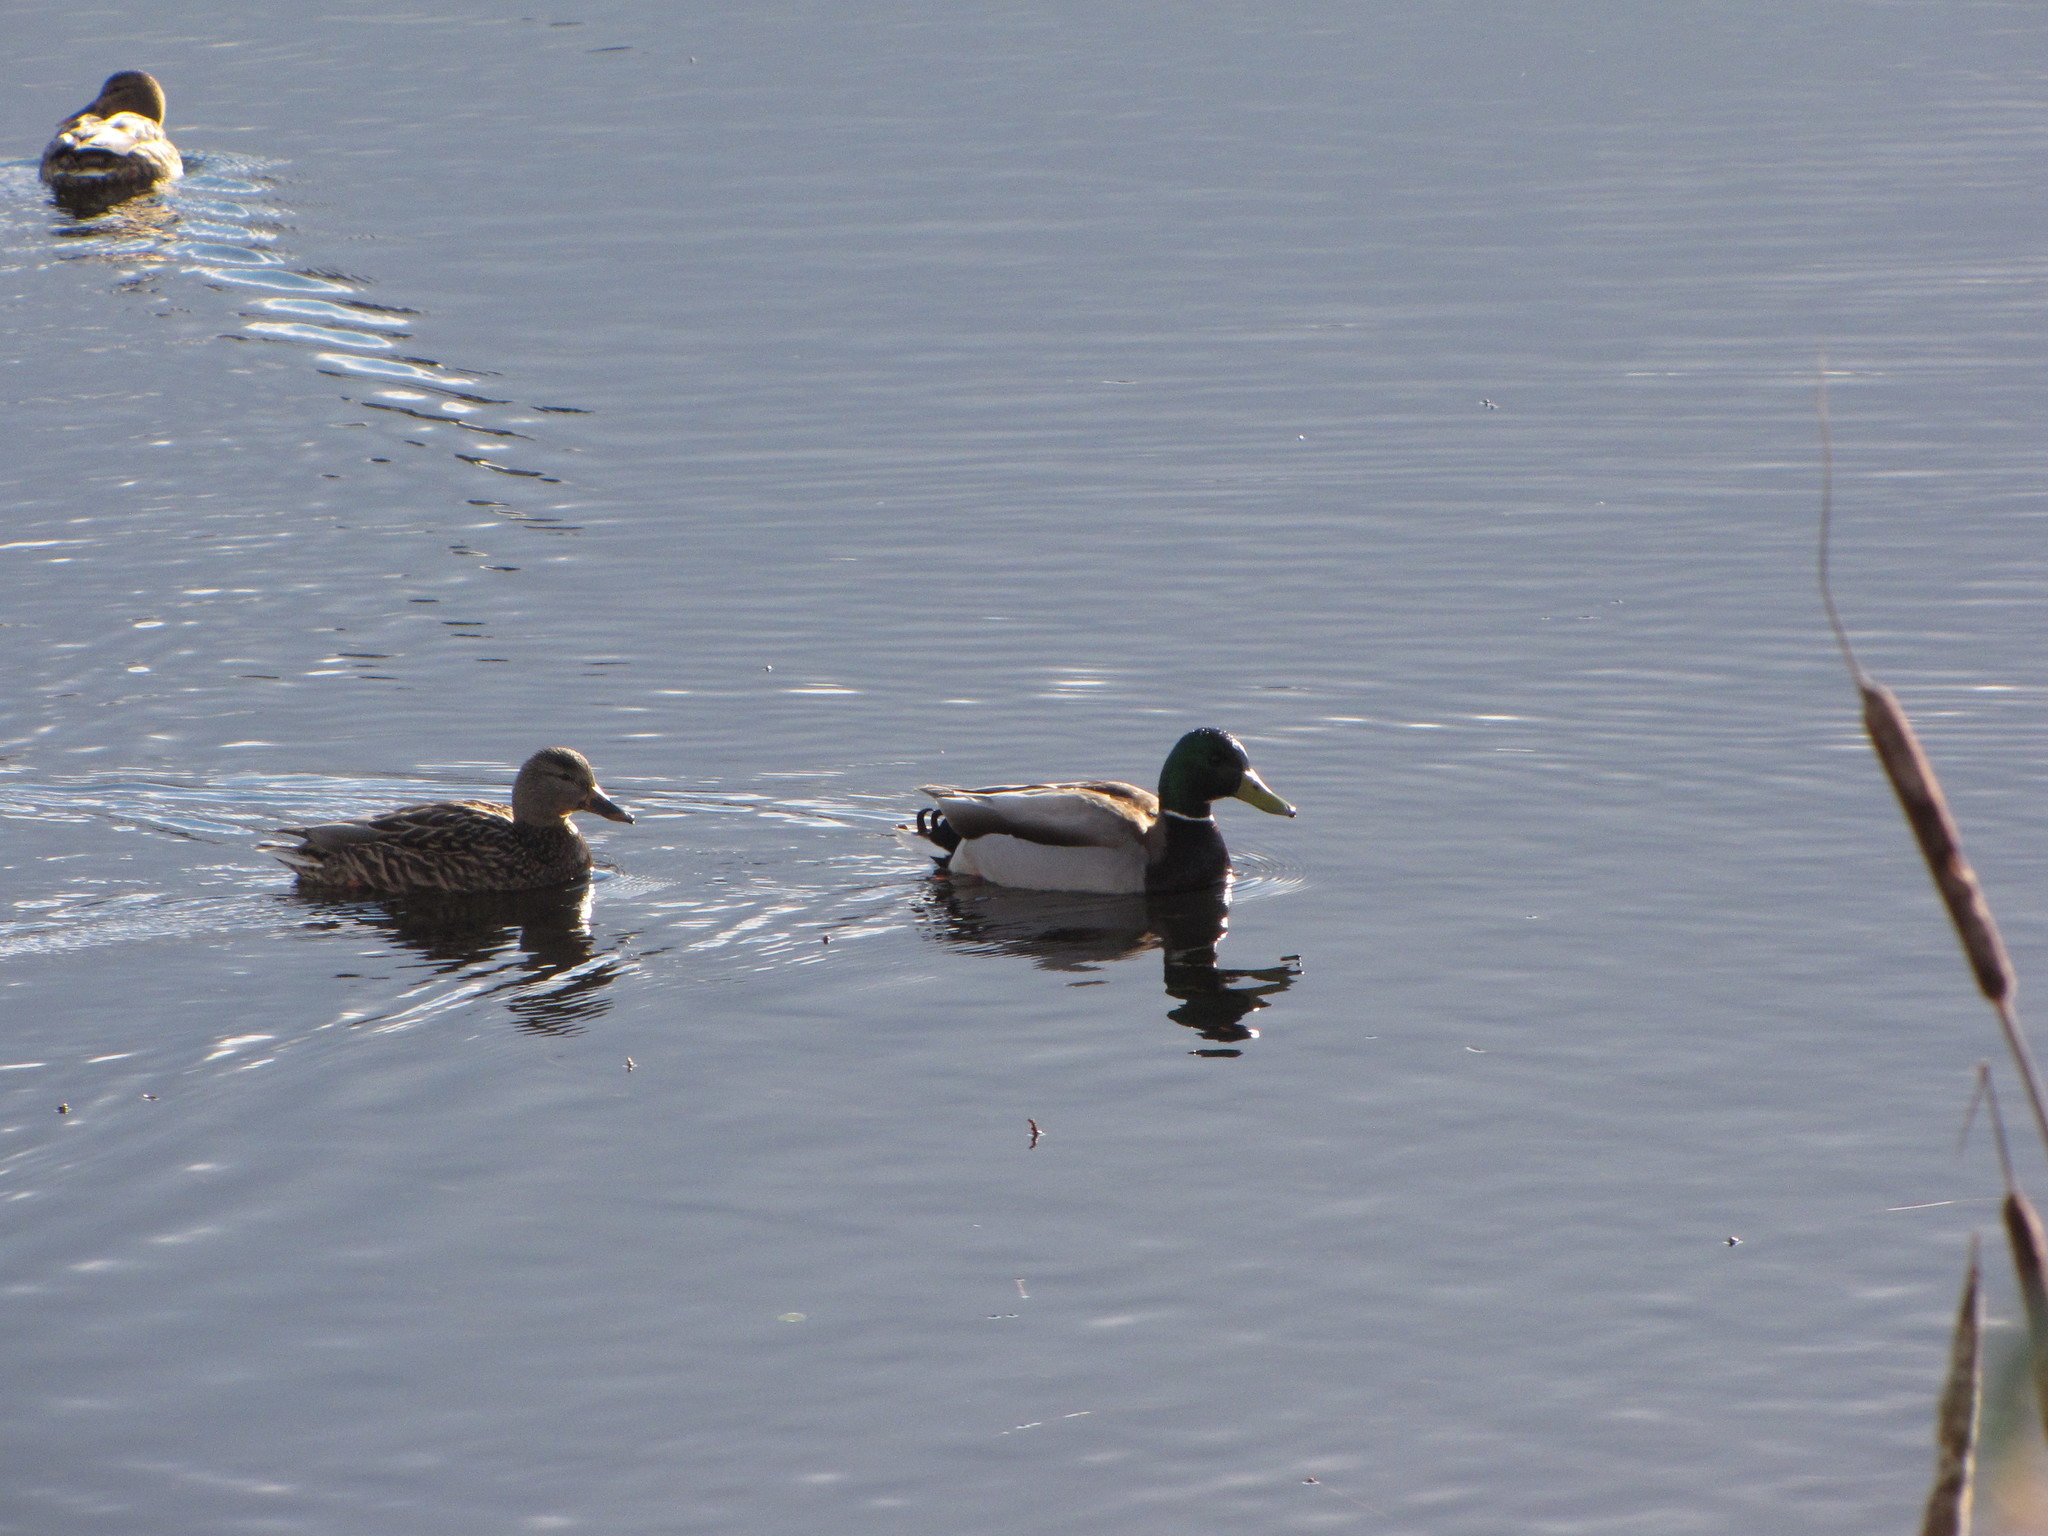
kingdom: Animalia
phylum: Chordata
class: Aves
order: Anseriformes
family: Anatidae
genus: Anas
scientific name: Anas platyrhynchos
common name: Mallard
